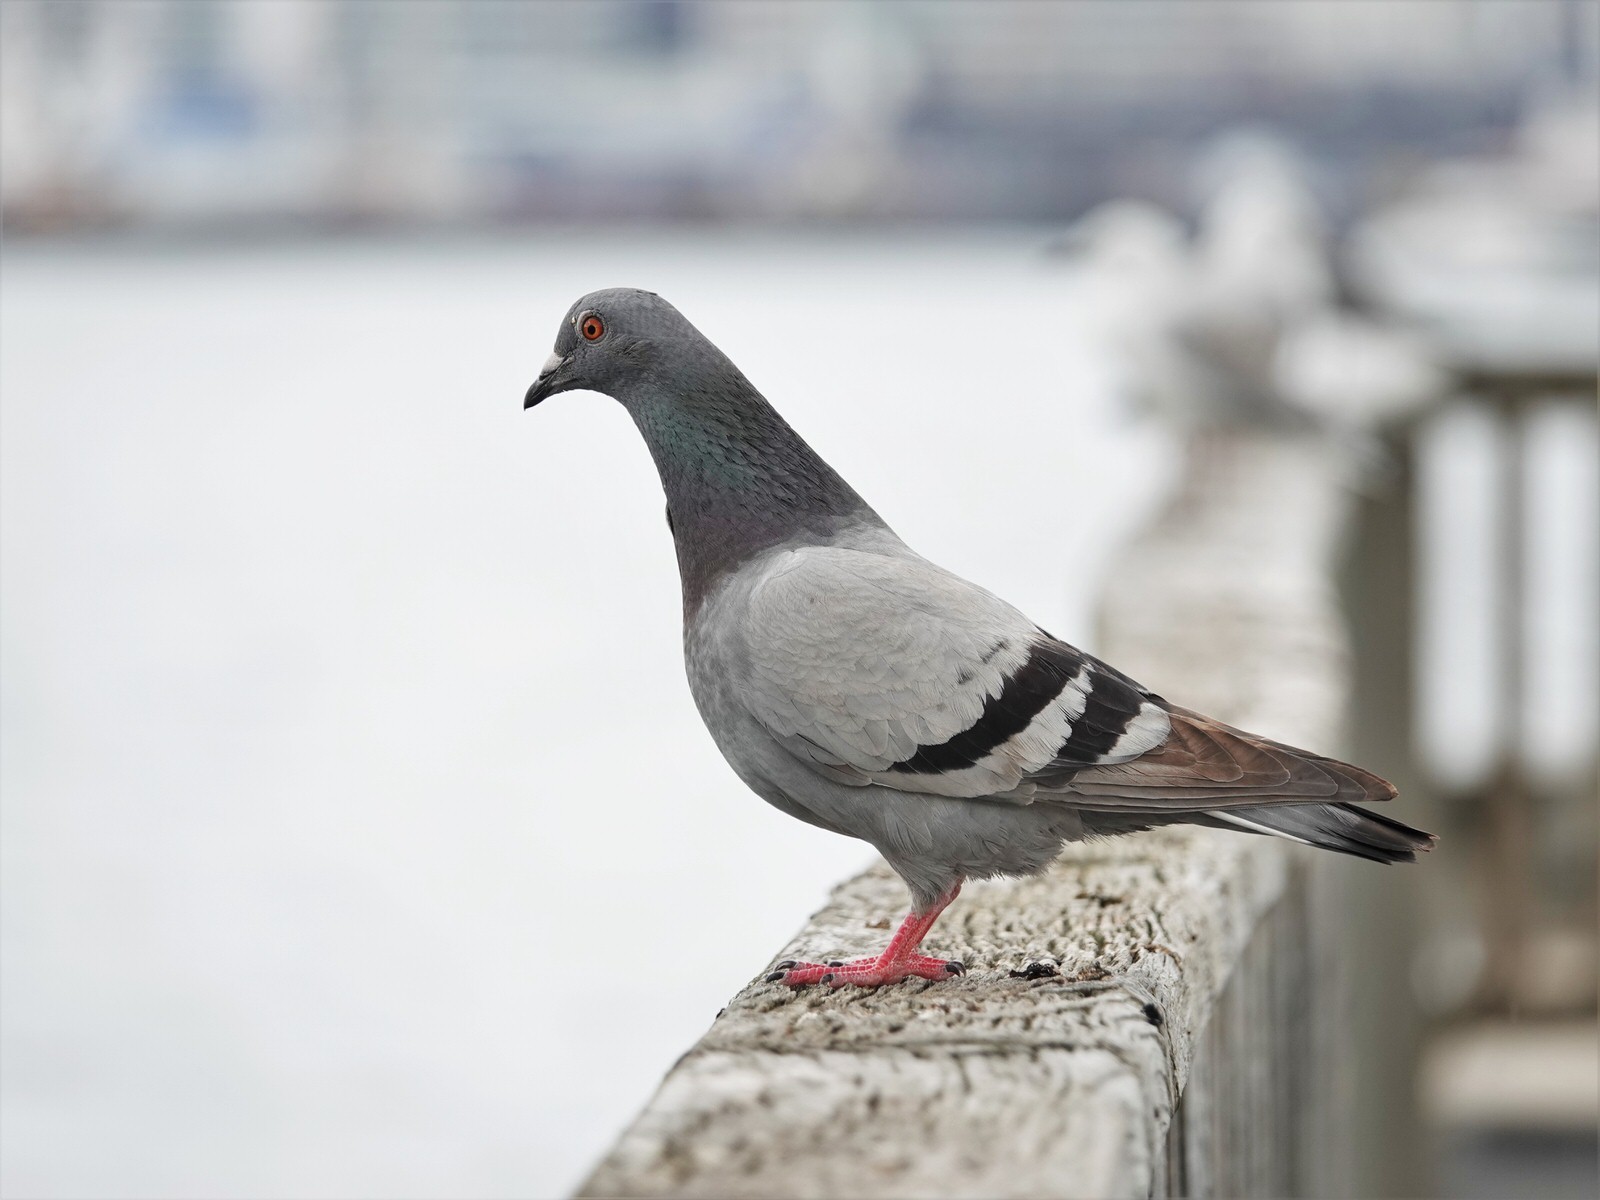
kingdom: Animalia
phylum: Chordata
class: Aves
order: Columbiformes
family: Columbidae
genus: Columba
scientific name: Columba livia
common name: Rock pigeon
